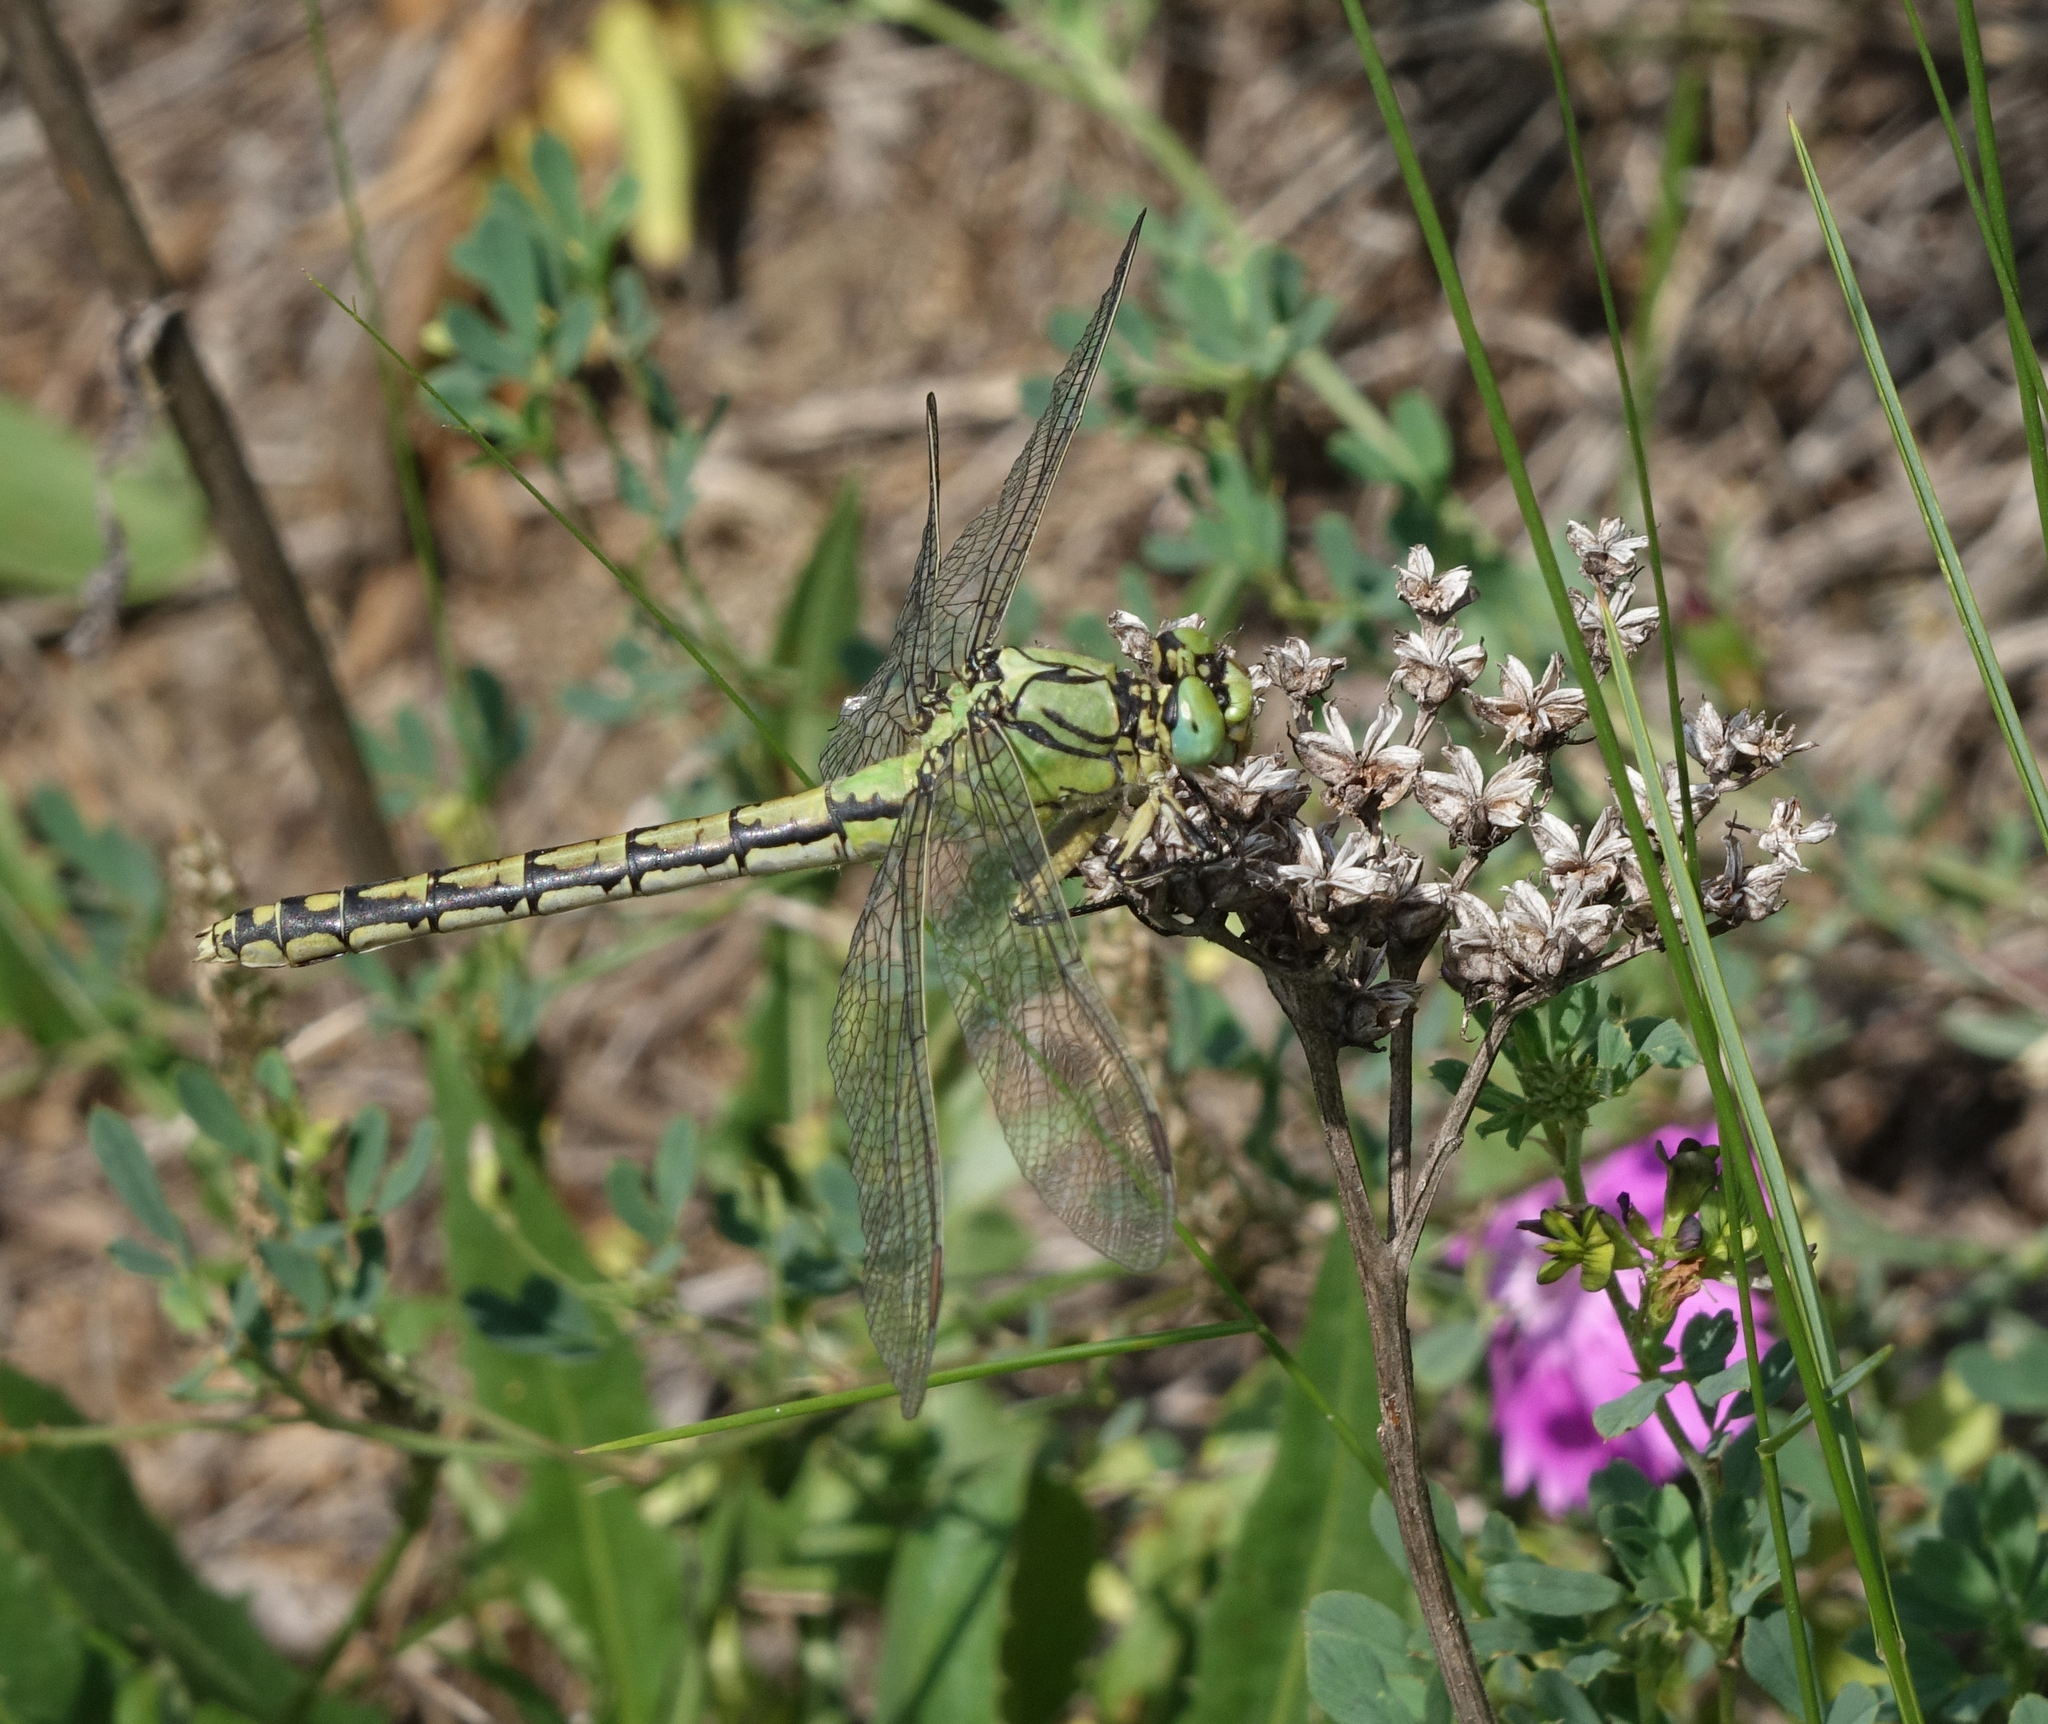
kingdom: Animalia
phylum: Arthropoda
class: Insecta
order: Odonata
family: Gomphidae
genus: Ophiogomphus
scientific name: Ophiogomphus cecilia
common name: Green snaketail
